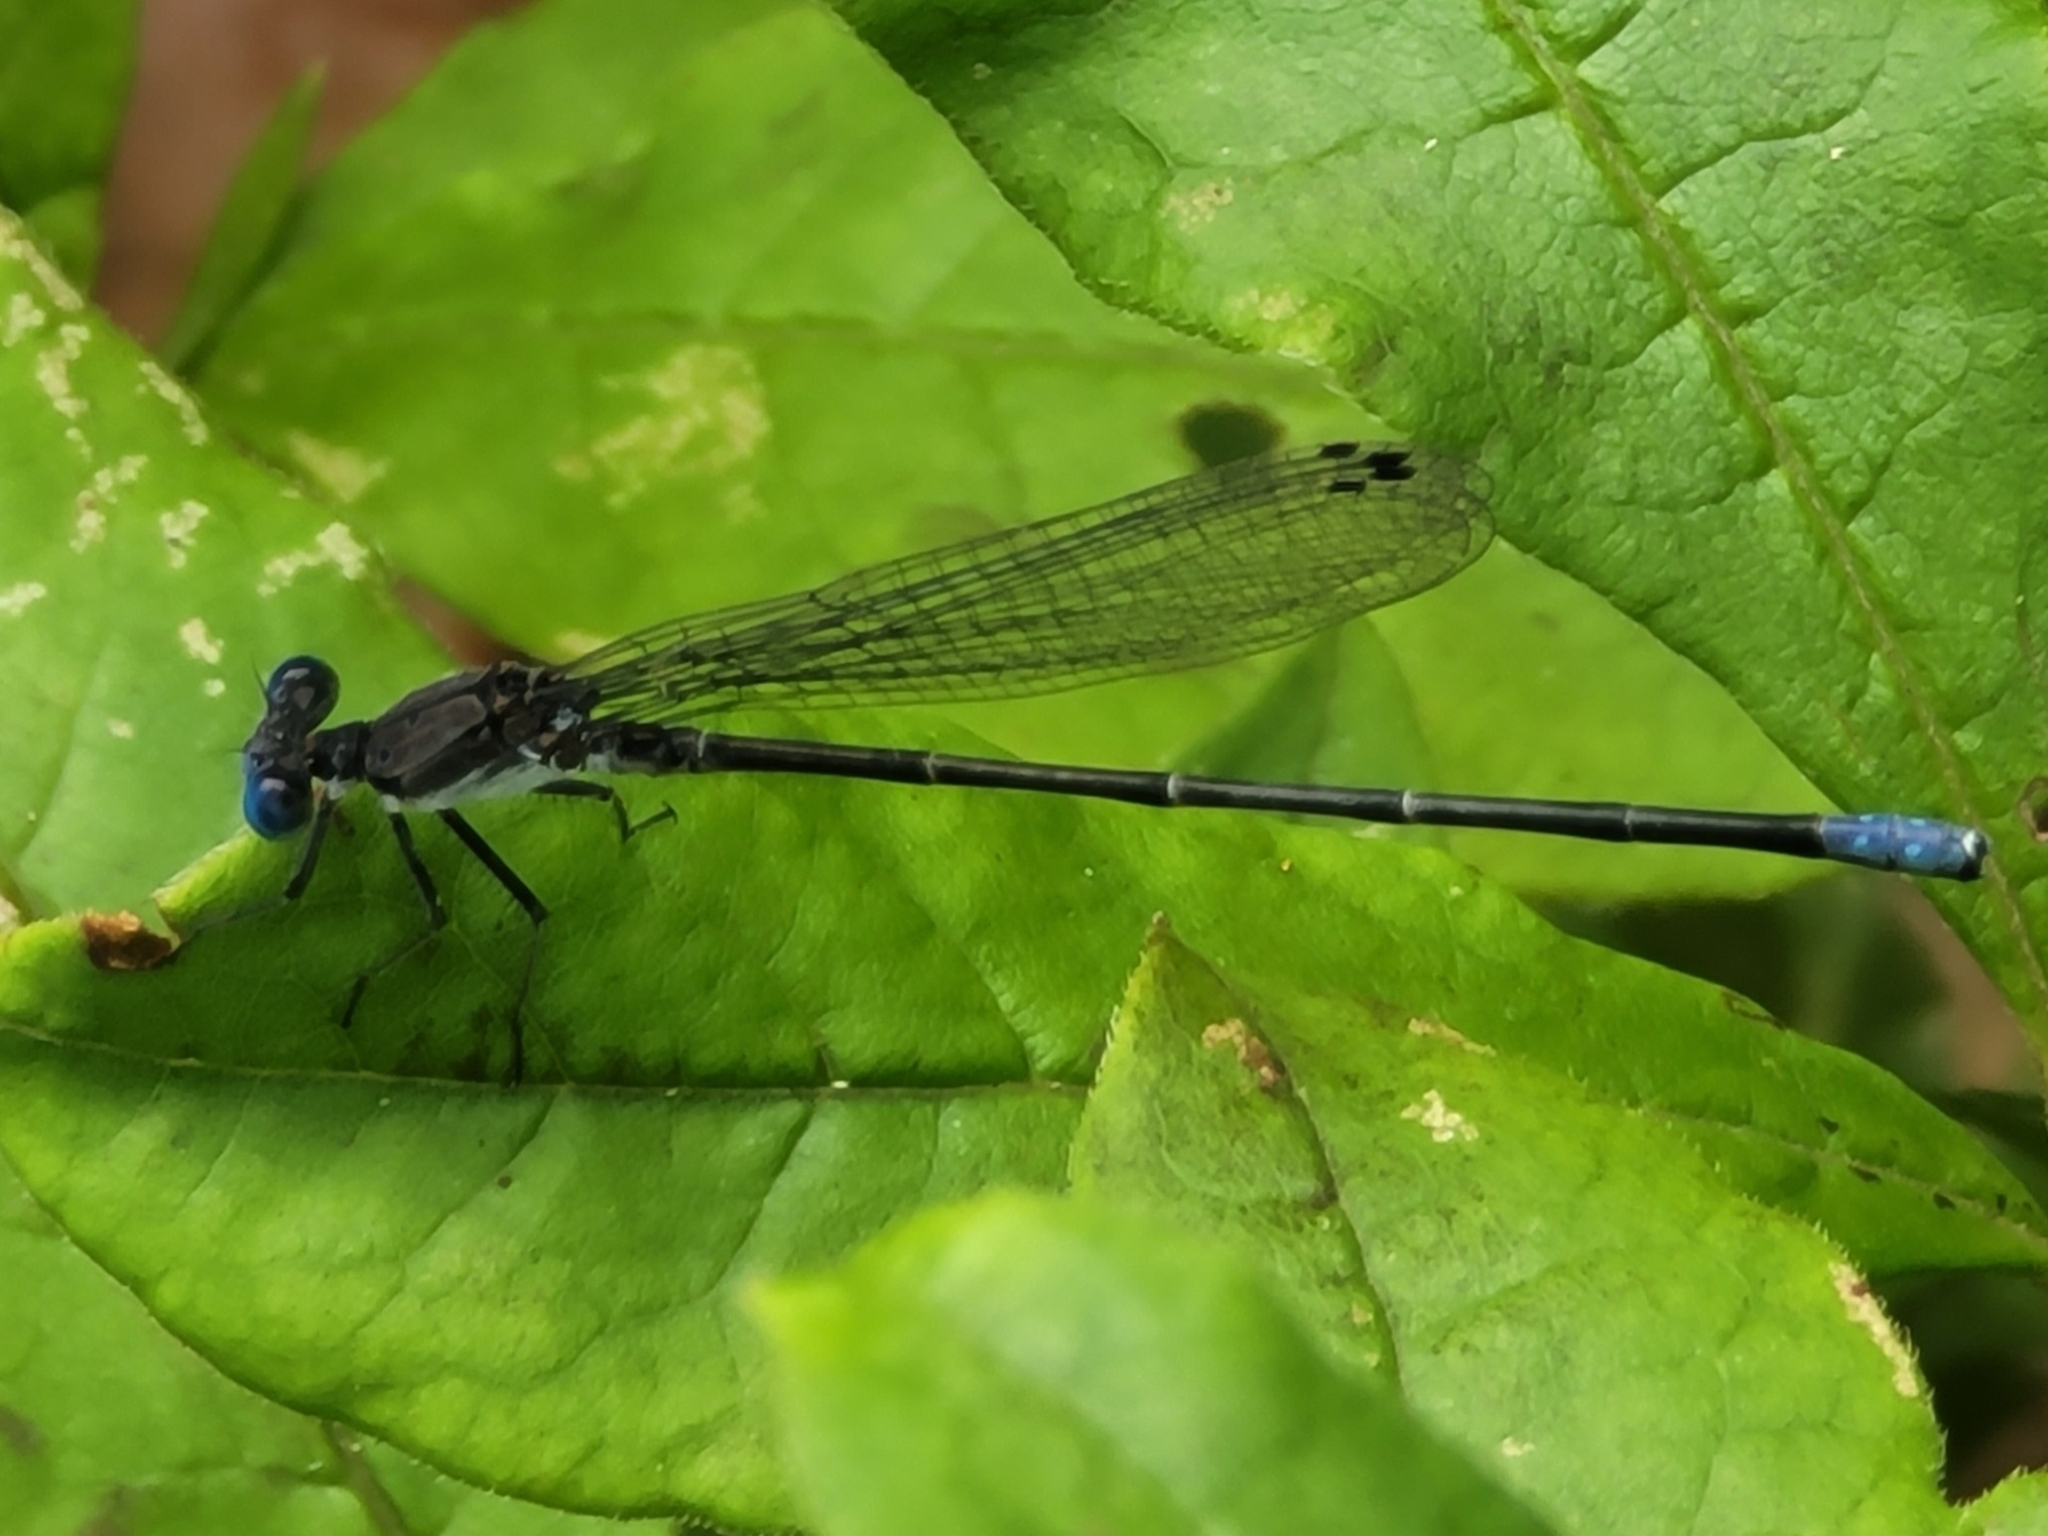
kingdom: Animalia
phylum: Arthropoda
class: Insecta
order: Odonata
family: Coenagrionidae
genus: Argia
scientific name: Argia apicalis
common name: Blue-fronted dancer
